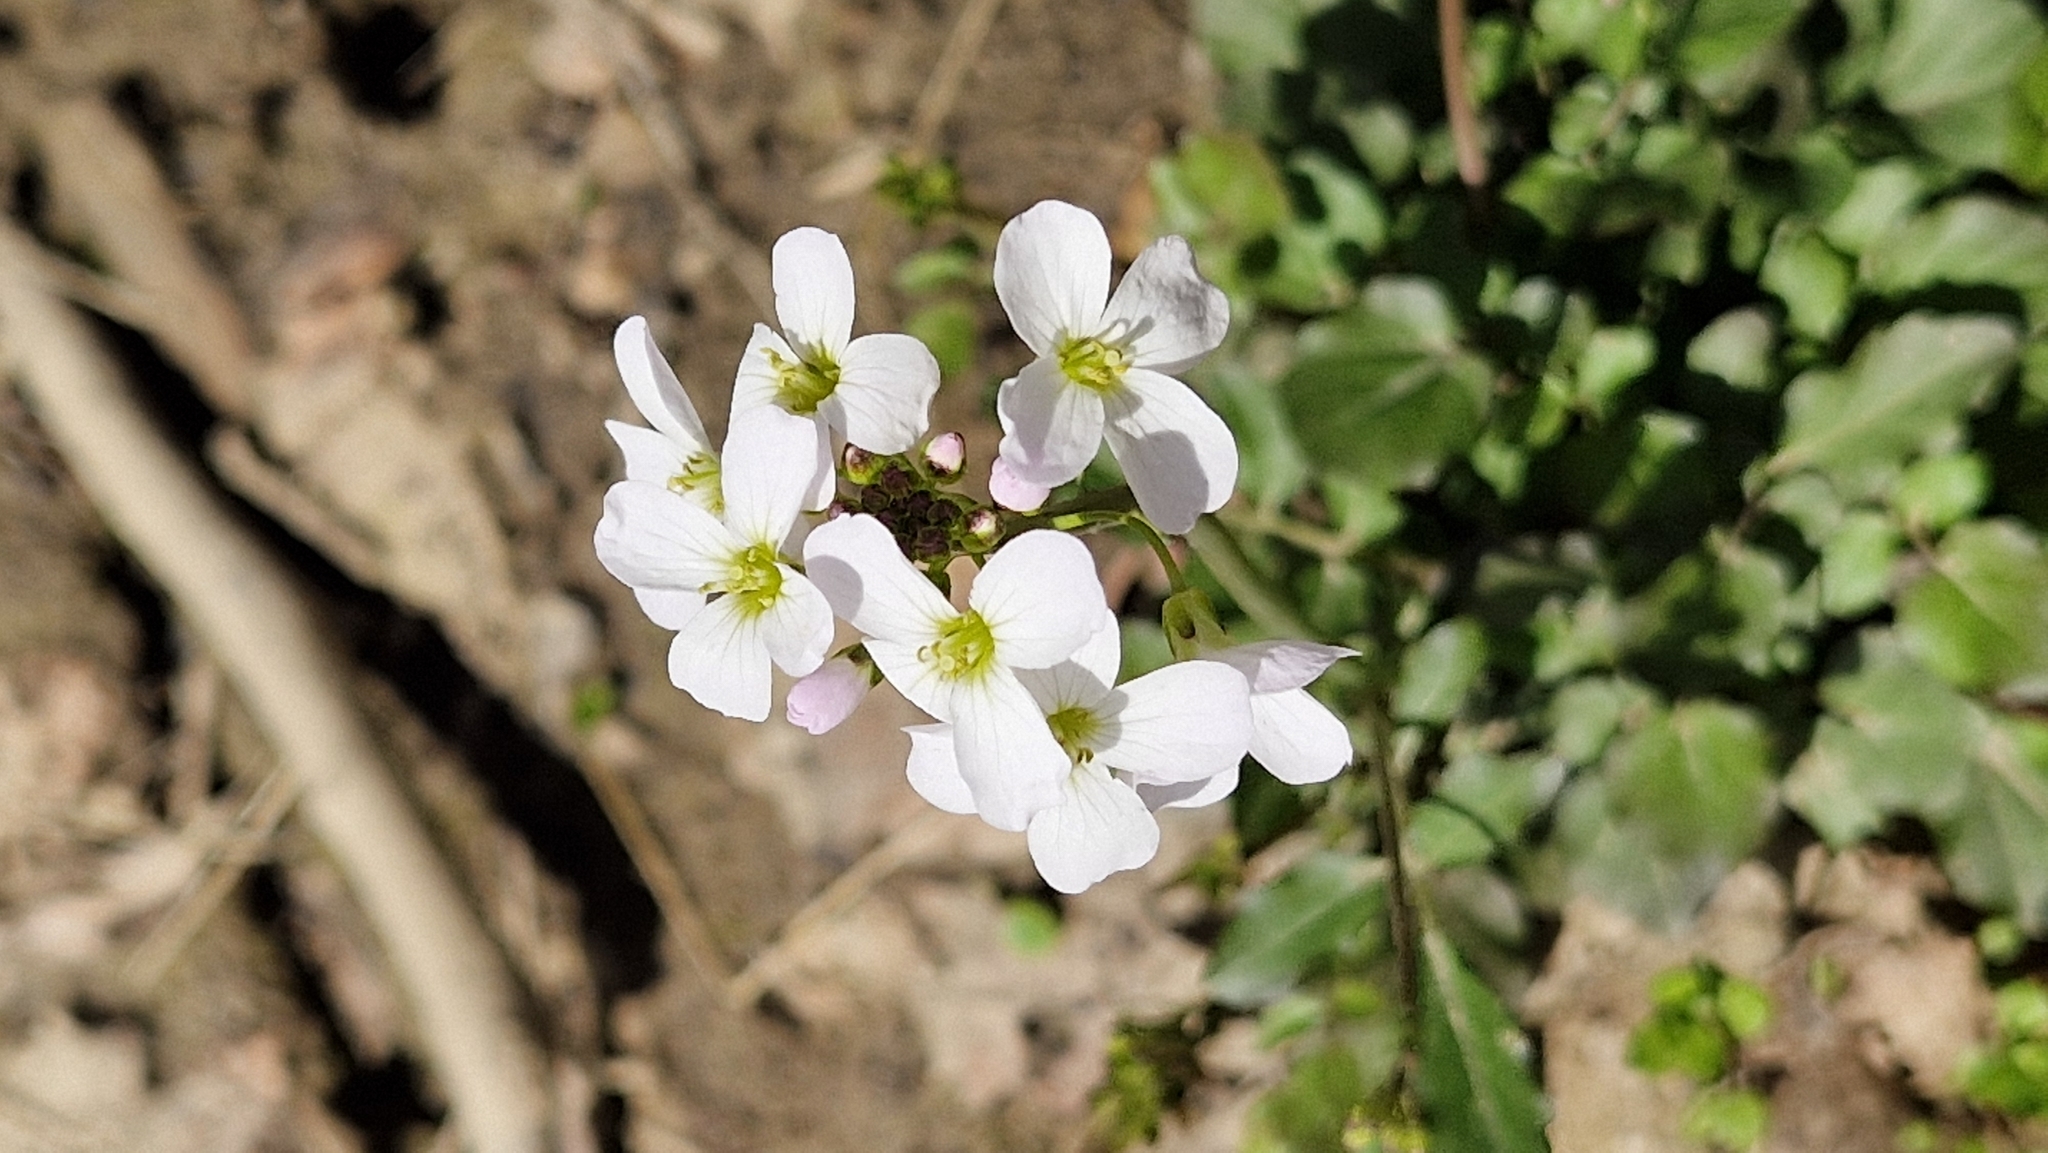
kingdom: Plantae
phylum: Tracheophyta
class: Magnoliopsida
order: Brassicales
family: Brassicaceae
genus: Pachyphragma
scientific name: Pachyphragma macrophyllum
